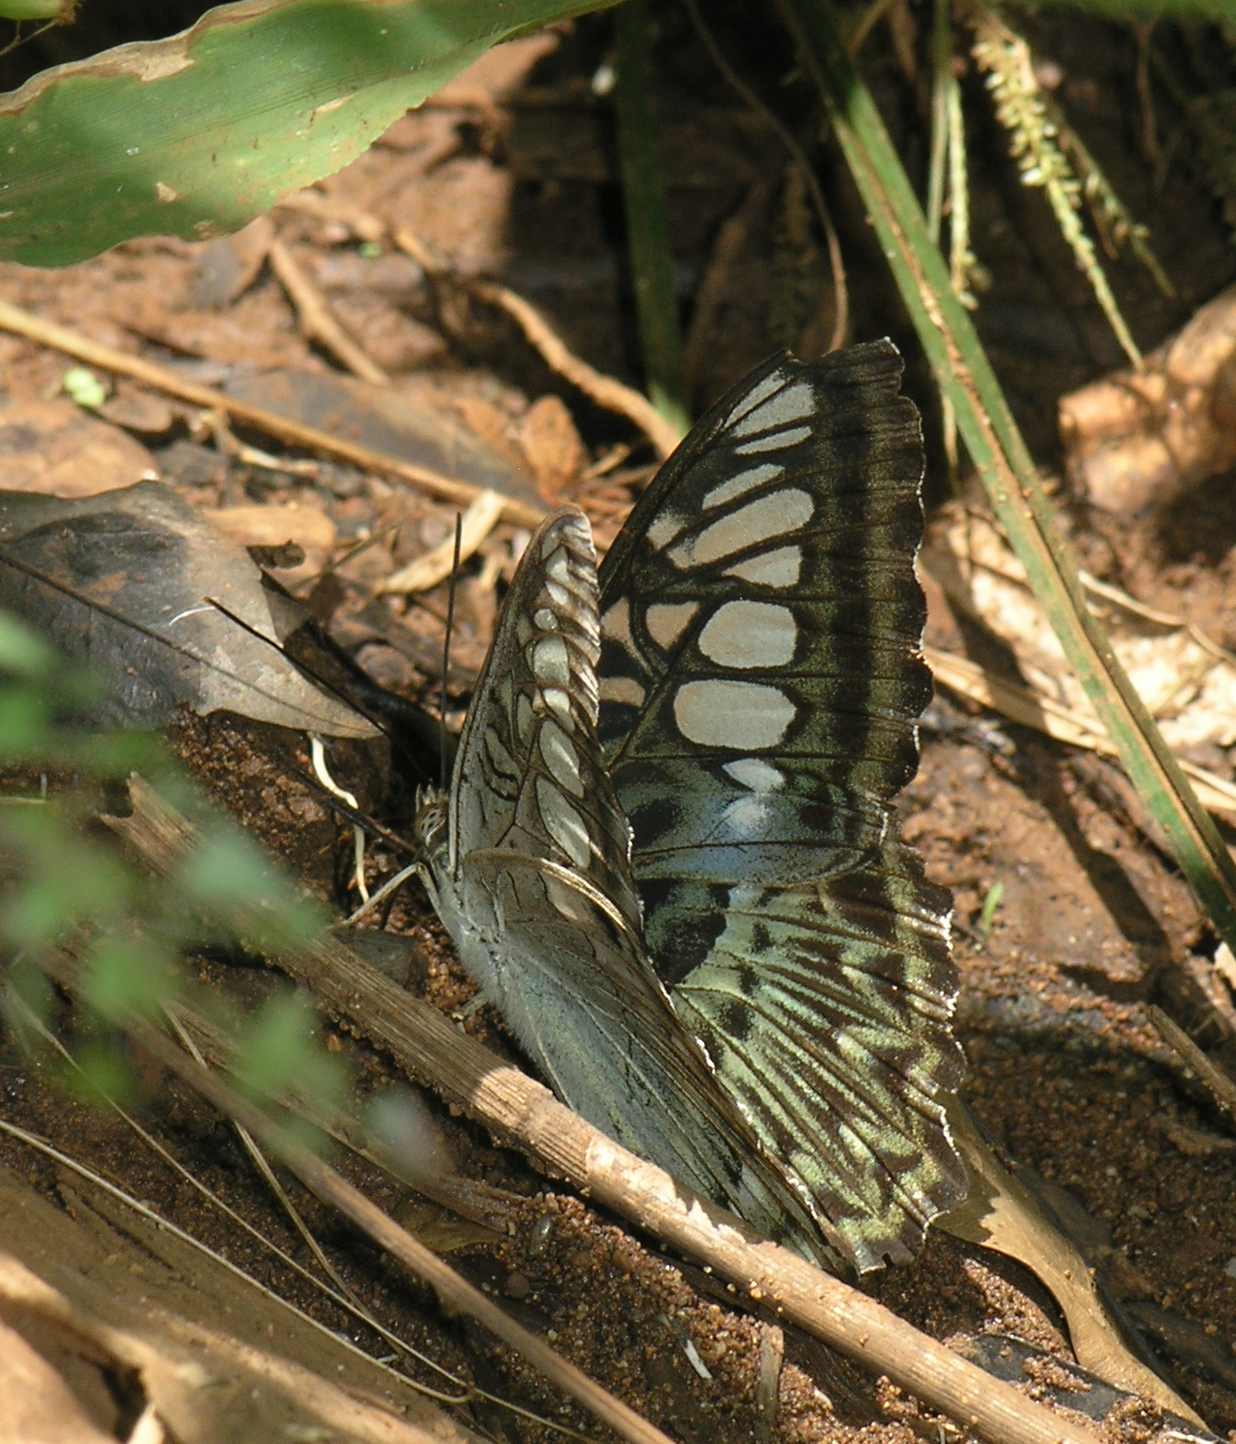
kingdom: Animalia
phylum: Arthropoda
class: Insecta
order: Lepidoptera
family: Nymphalidae
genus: Kallima
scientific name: Kallima sylvia
